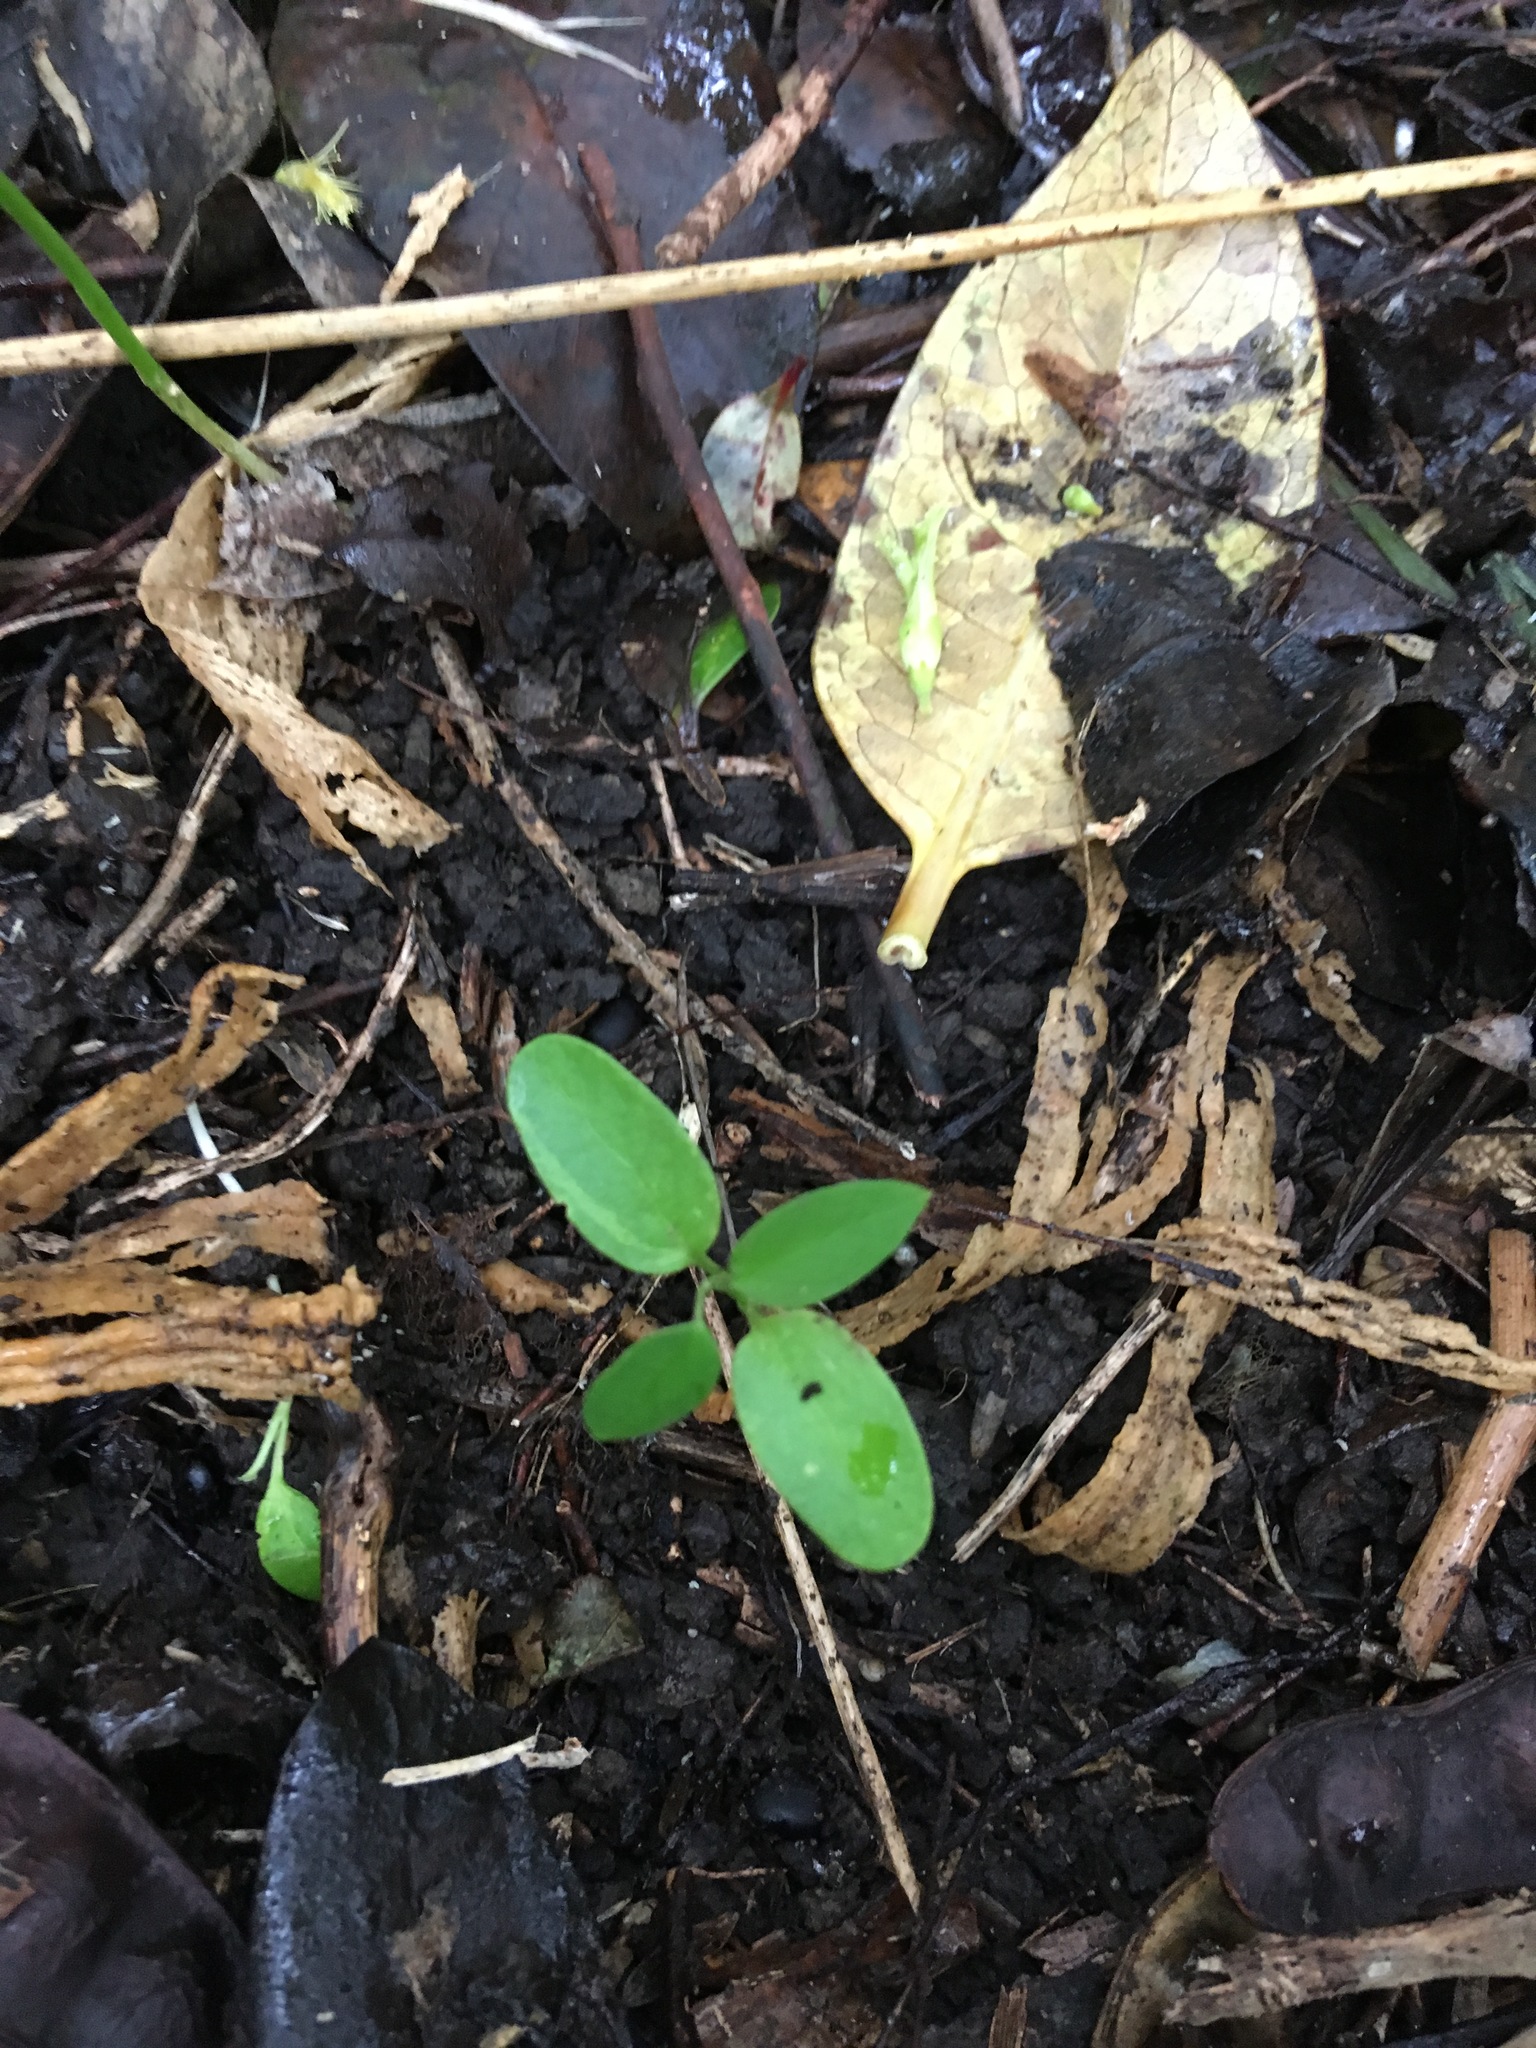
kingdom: Plantae
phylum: Tracheophyta
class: Magnoliopsida
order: Gentianales
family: Apocynaceae
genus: Araujia
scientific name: Araujia sericifera
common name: White bladderflower
